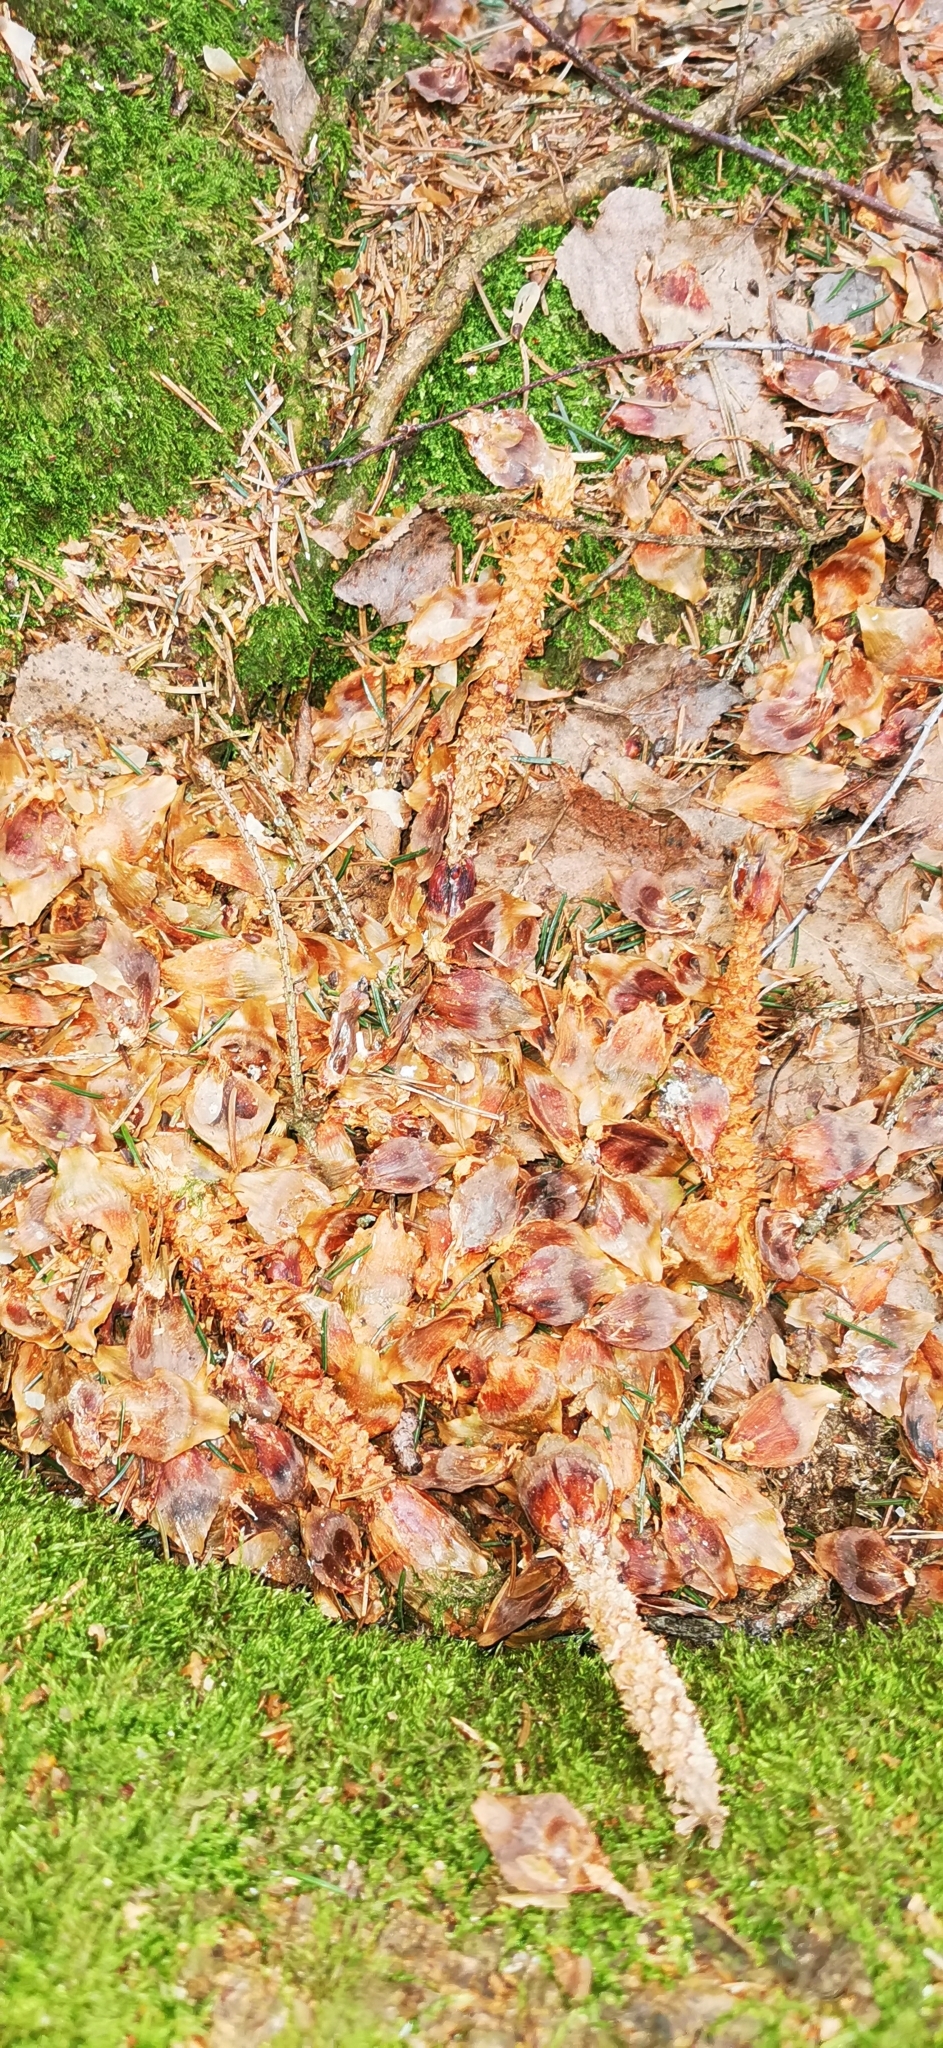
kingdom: Animalia
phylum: Chordata
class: Mammalia
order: Rodentia
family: Sciuridae
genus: Sciurus
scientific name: Sciurus vulgaris
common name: Eurasian red squirrel
